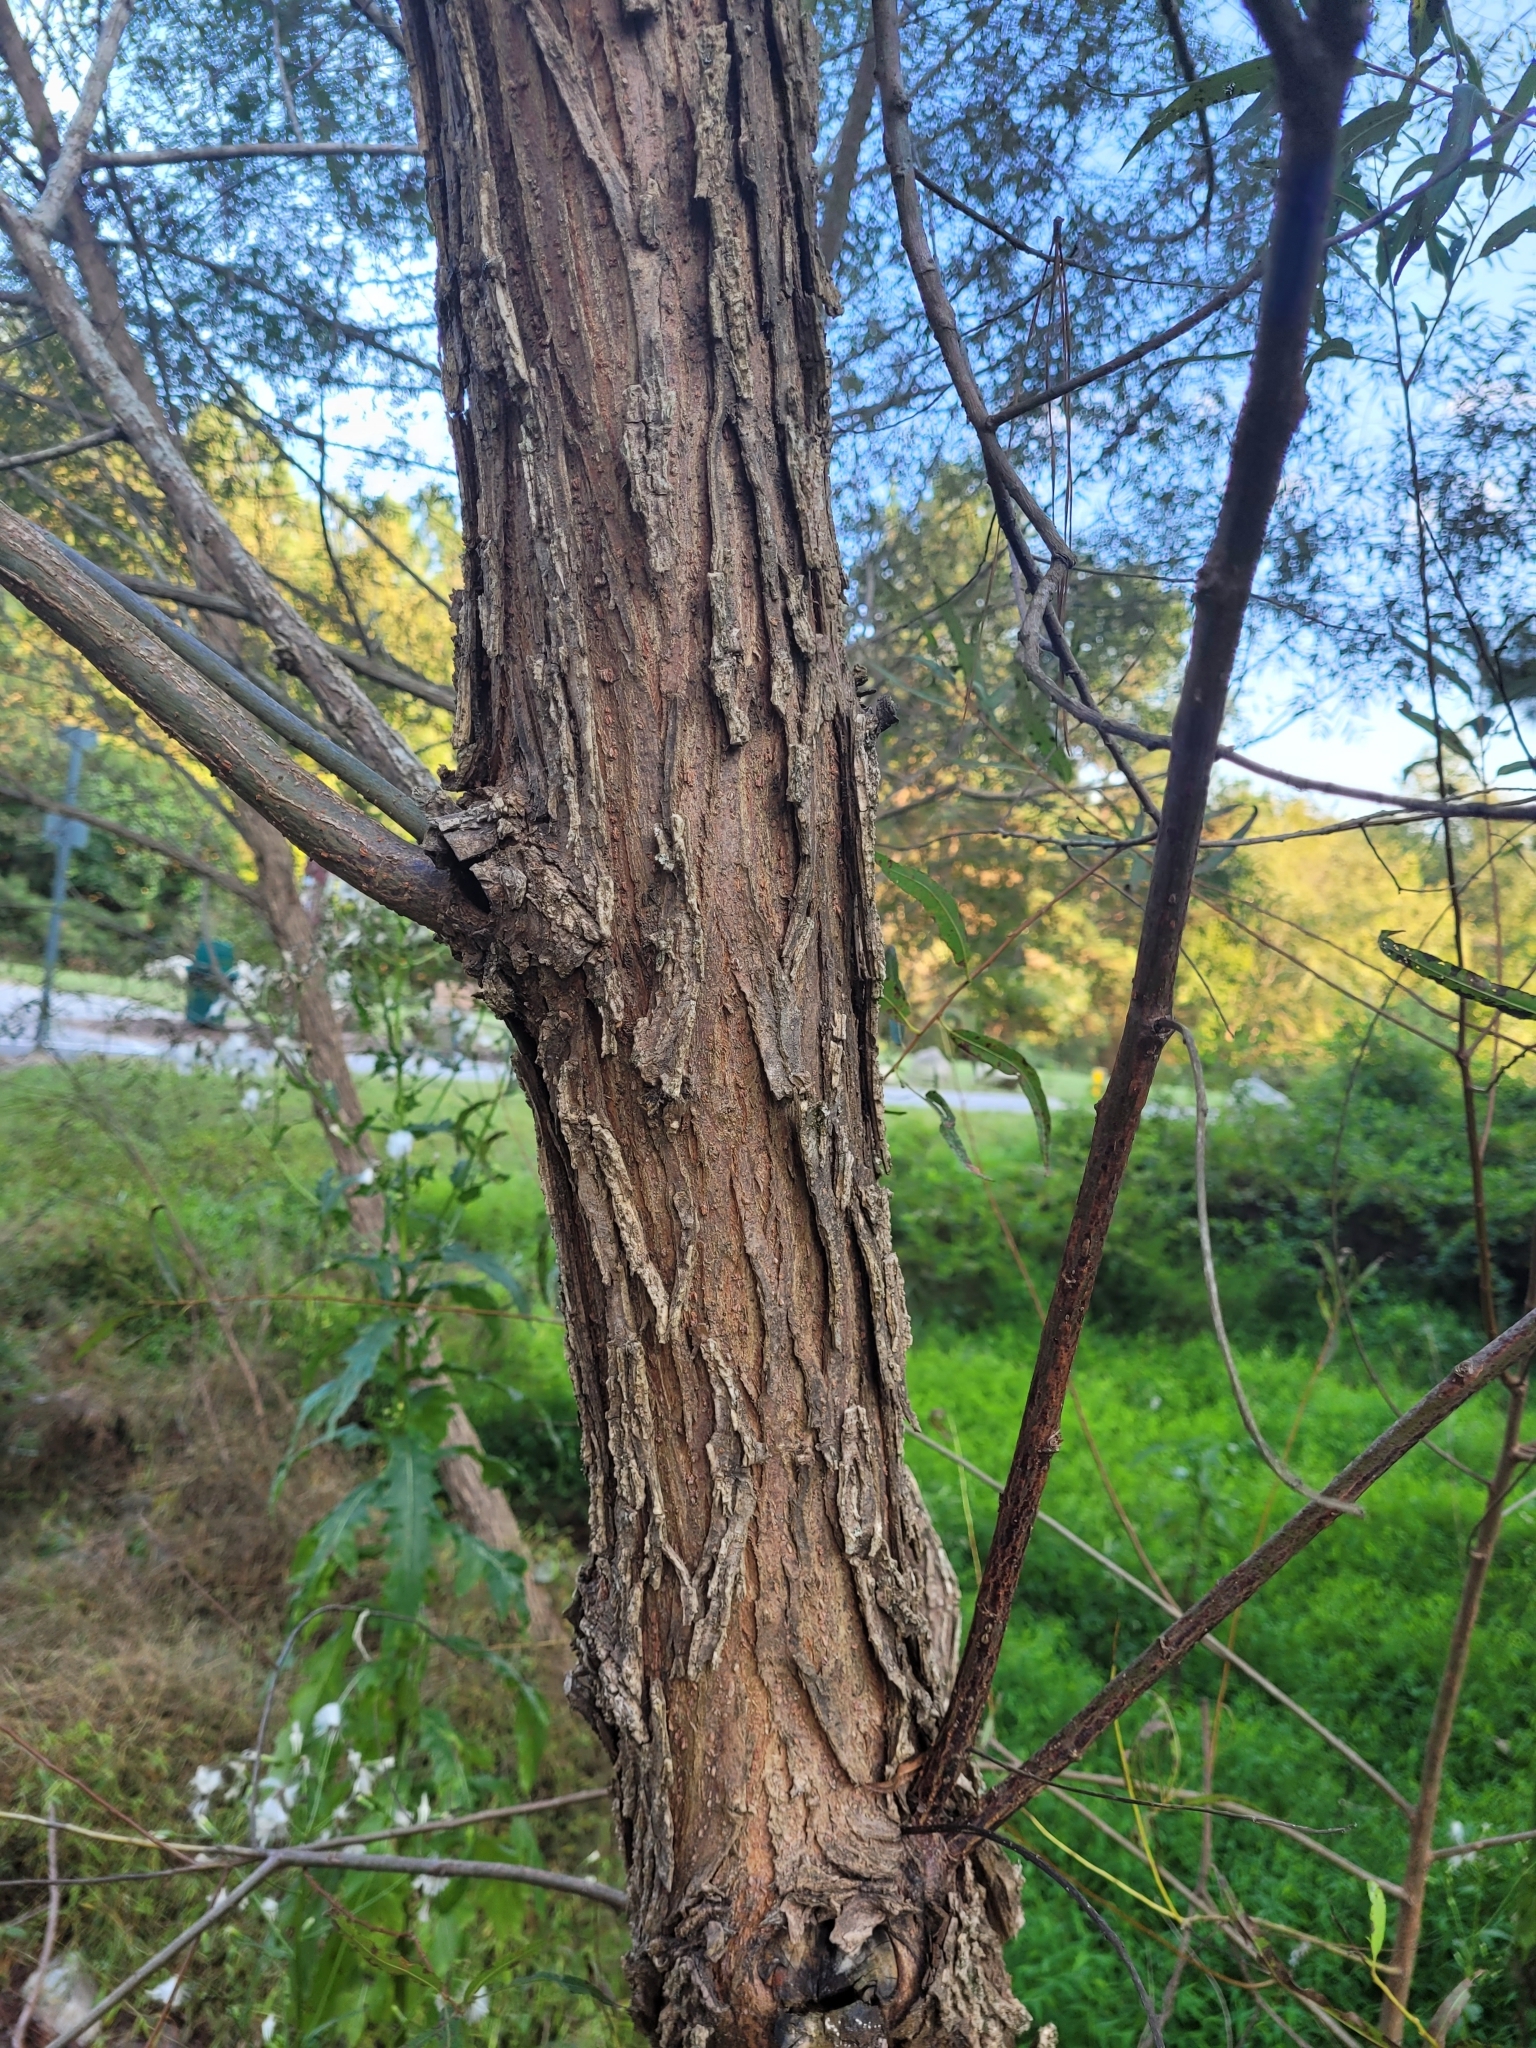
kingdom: Plantae
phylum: Tracheophyta
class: Magnoliopsida
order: Malpighiales
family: Salicaceae
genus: Salix
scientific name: Salix nigra
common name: Black willow
